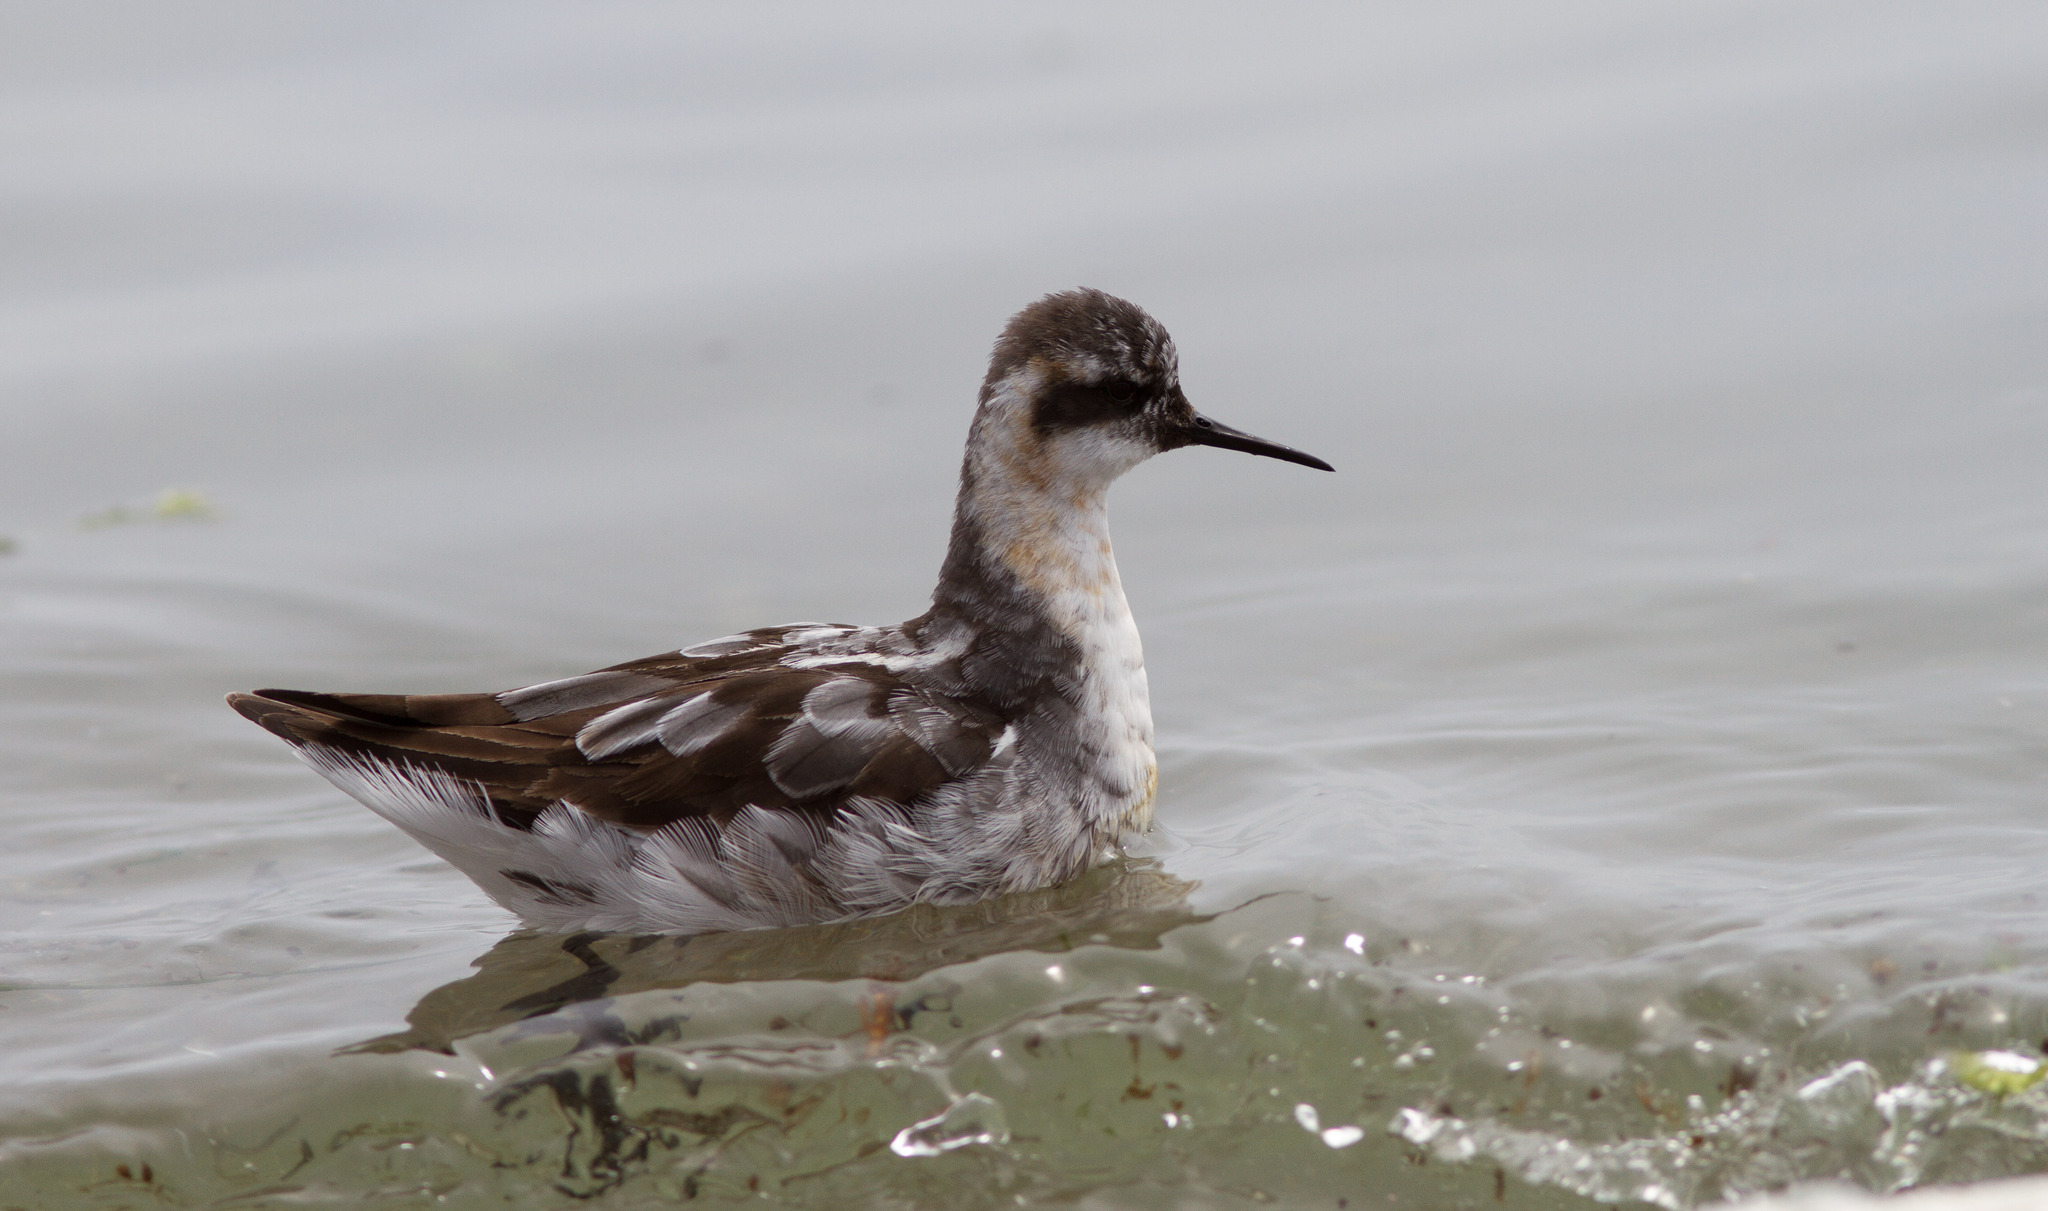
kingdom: Animalia
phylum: Chordata
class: Aves
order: Charadriiformes
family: Scolopacidae
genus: Phalaropus
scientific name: Phalaropus lobatus
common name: Red-necked phalarope
